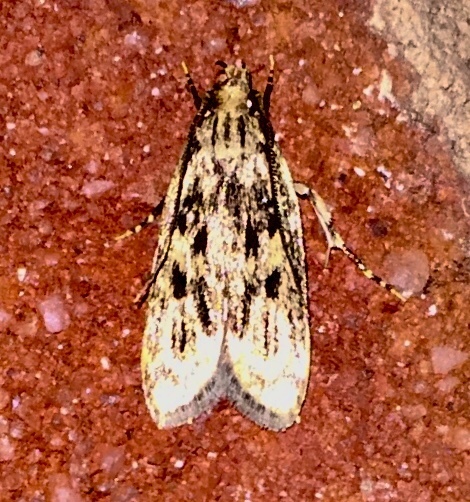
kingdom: Animalia
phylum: Arthropoda
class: Insecta
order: Lepidoptera
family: Lecithoceridae
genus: Martyringa
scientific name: Martyringa latipennis
